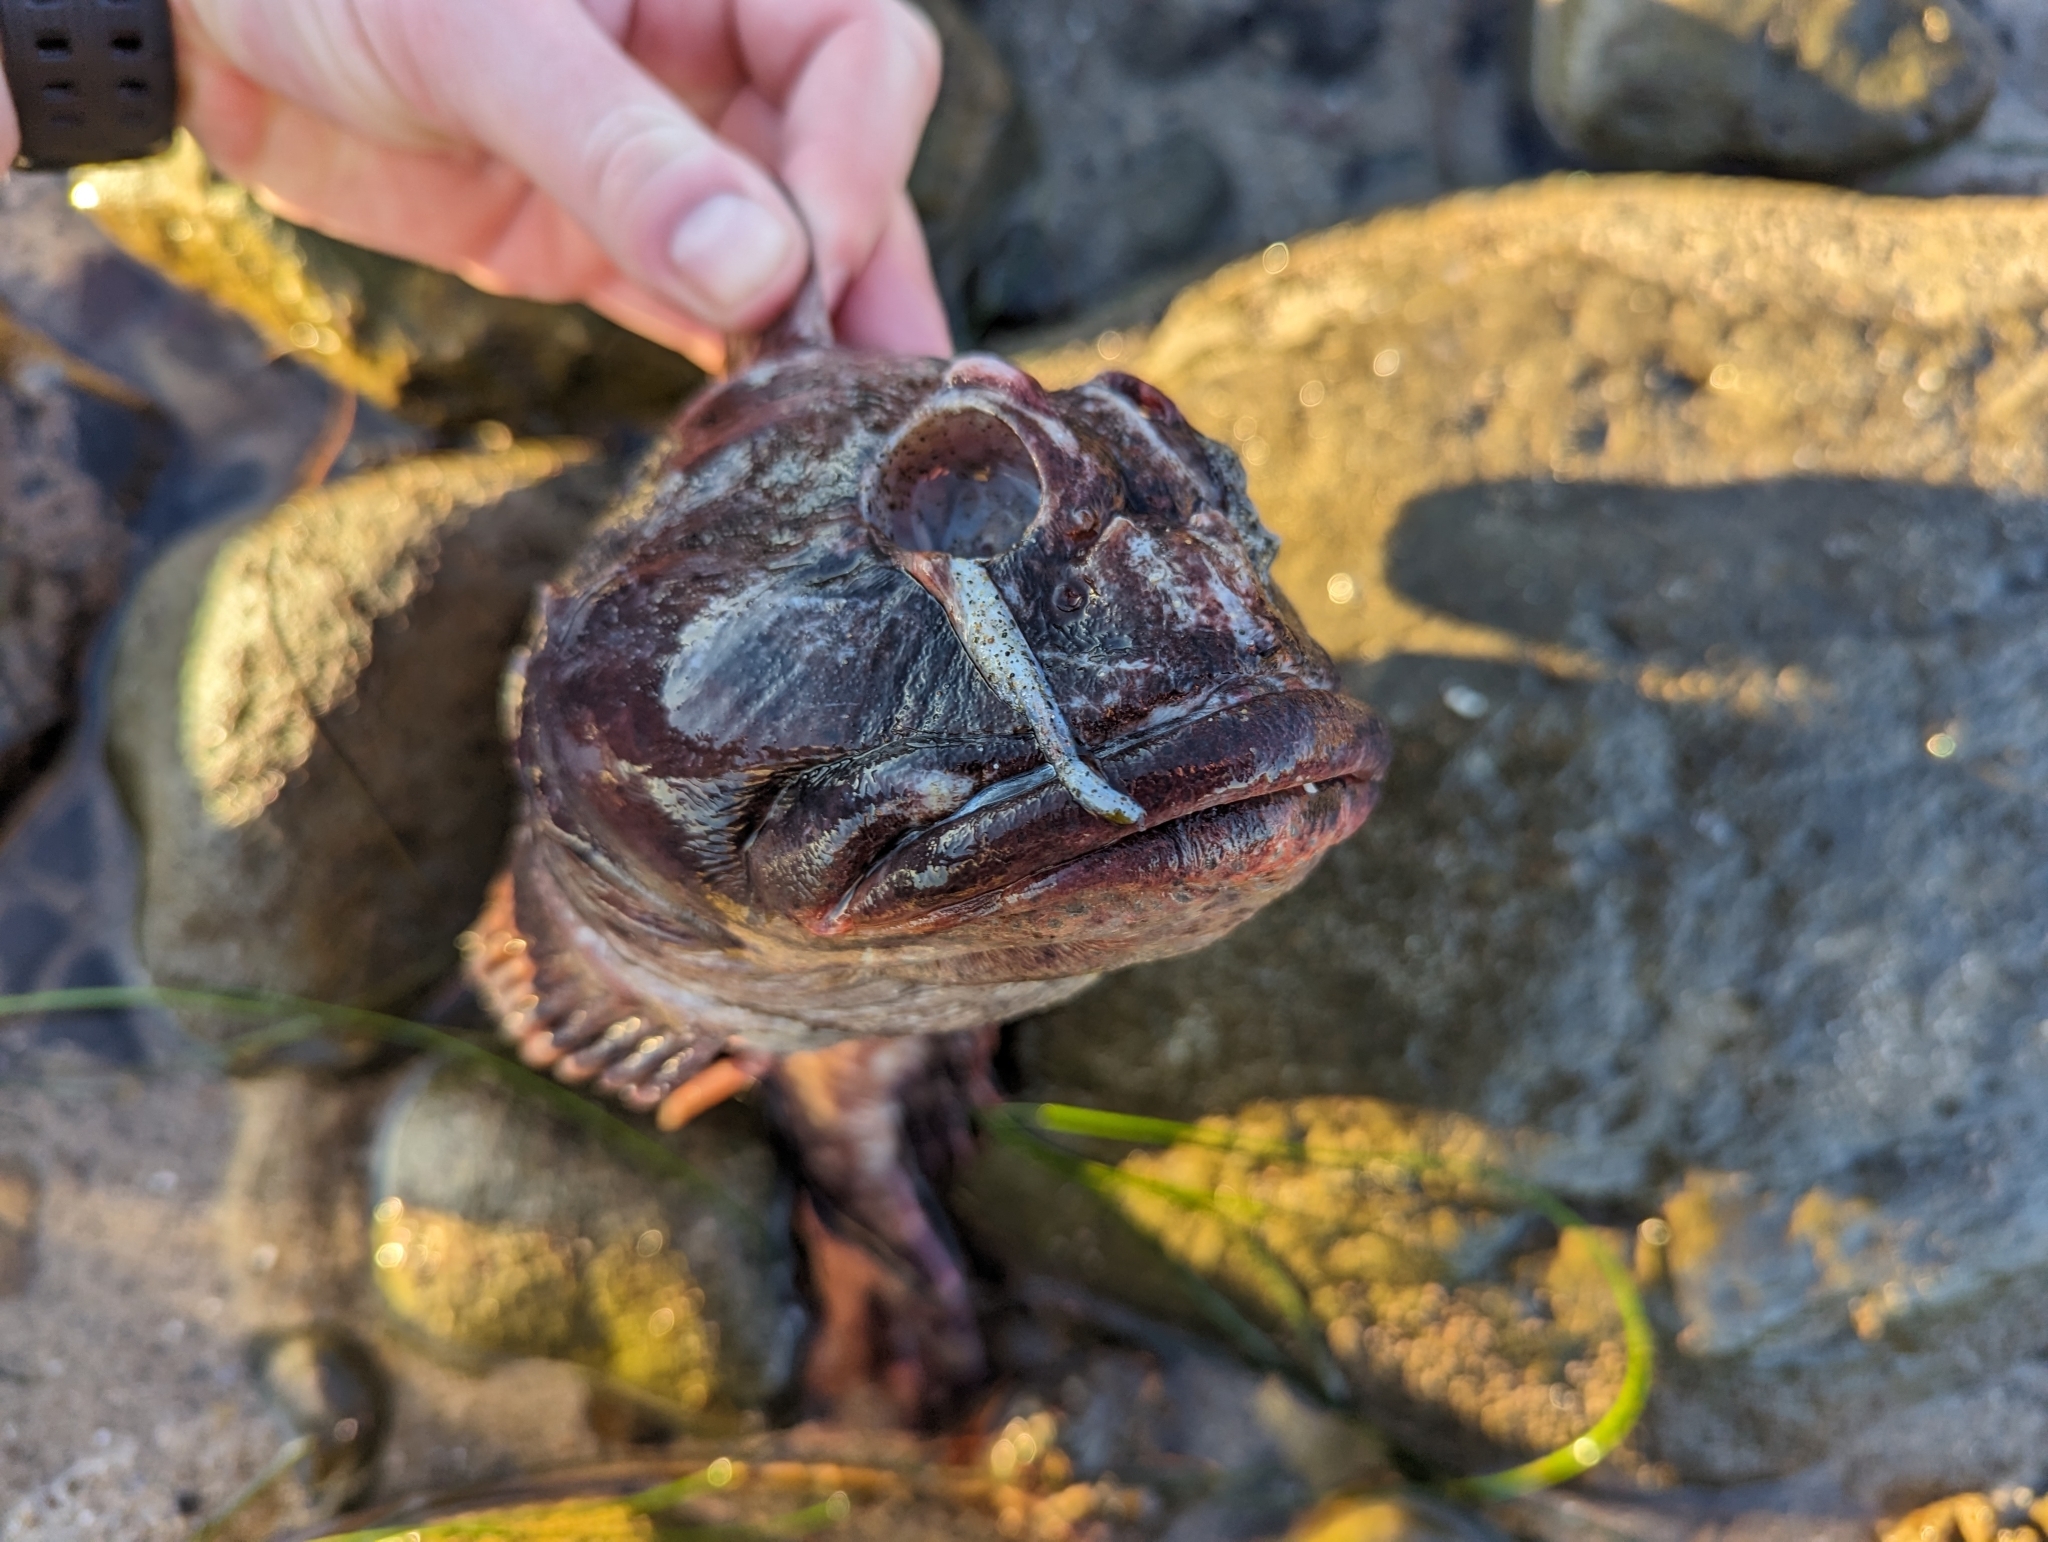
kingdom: Animalia
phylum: Chordata
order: Scorpaeniformes
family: Cottidae
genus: Scorpaenichthys
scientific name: Scorpaenichthys marmoratus
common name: Cabezon
